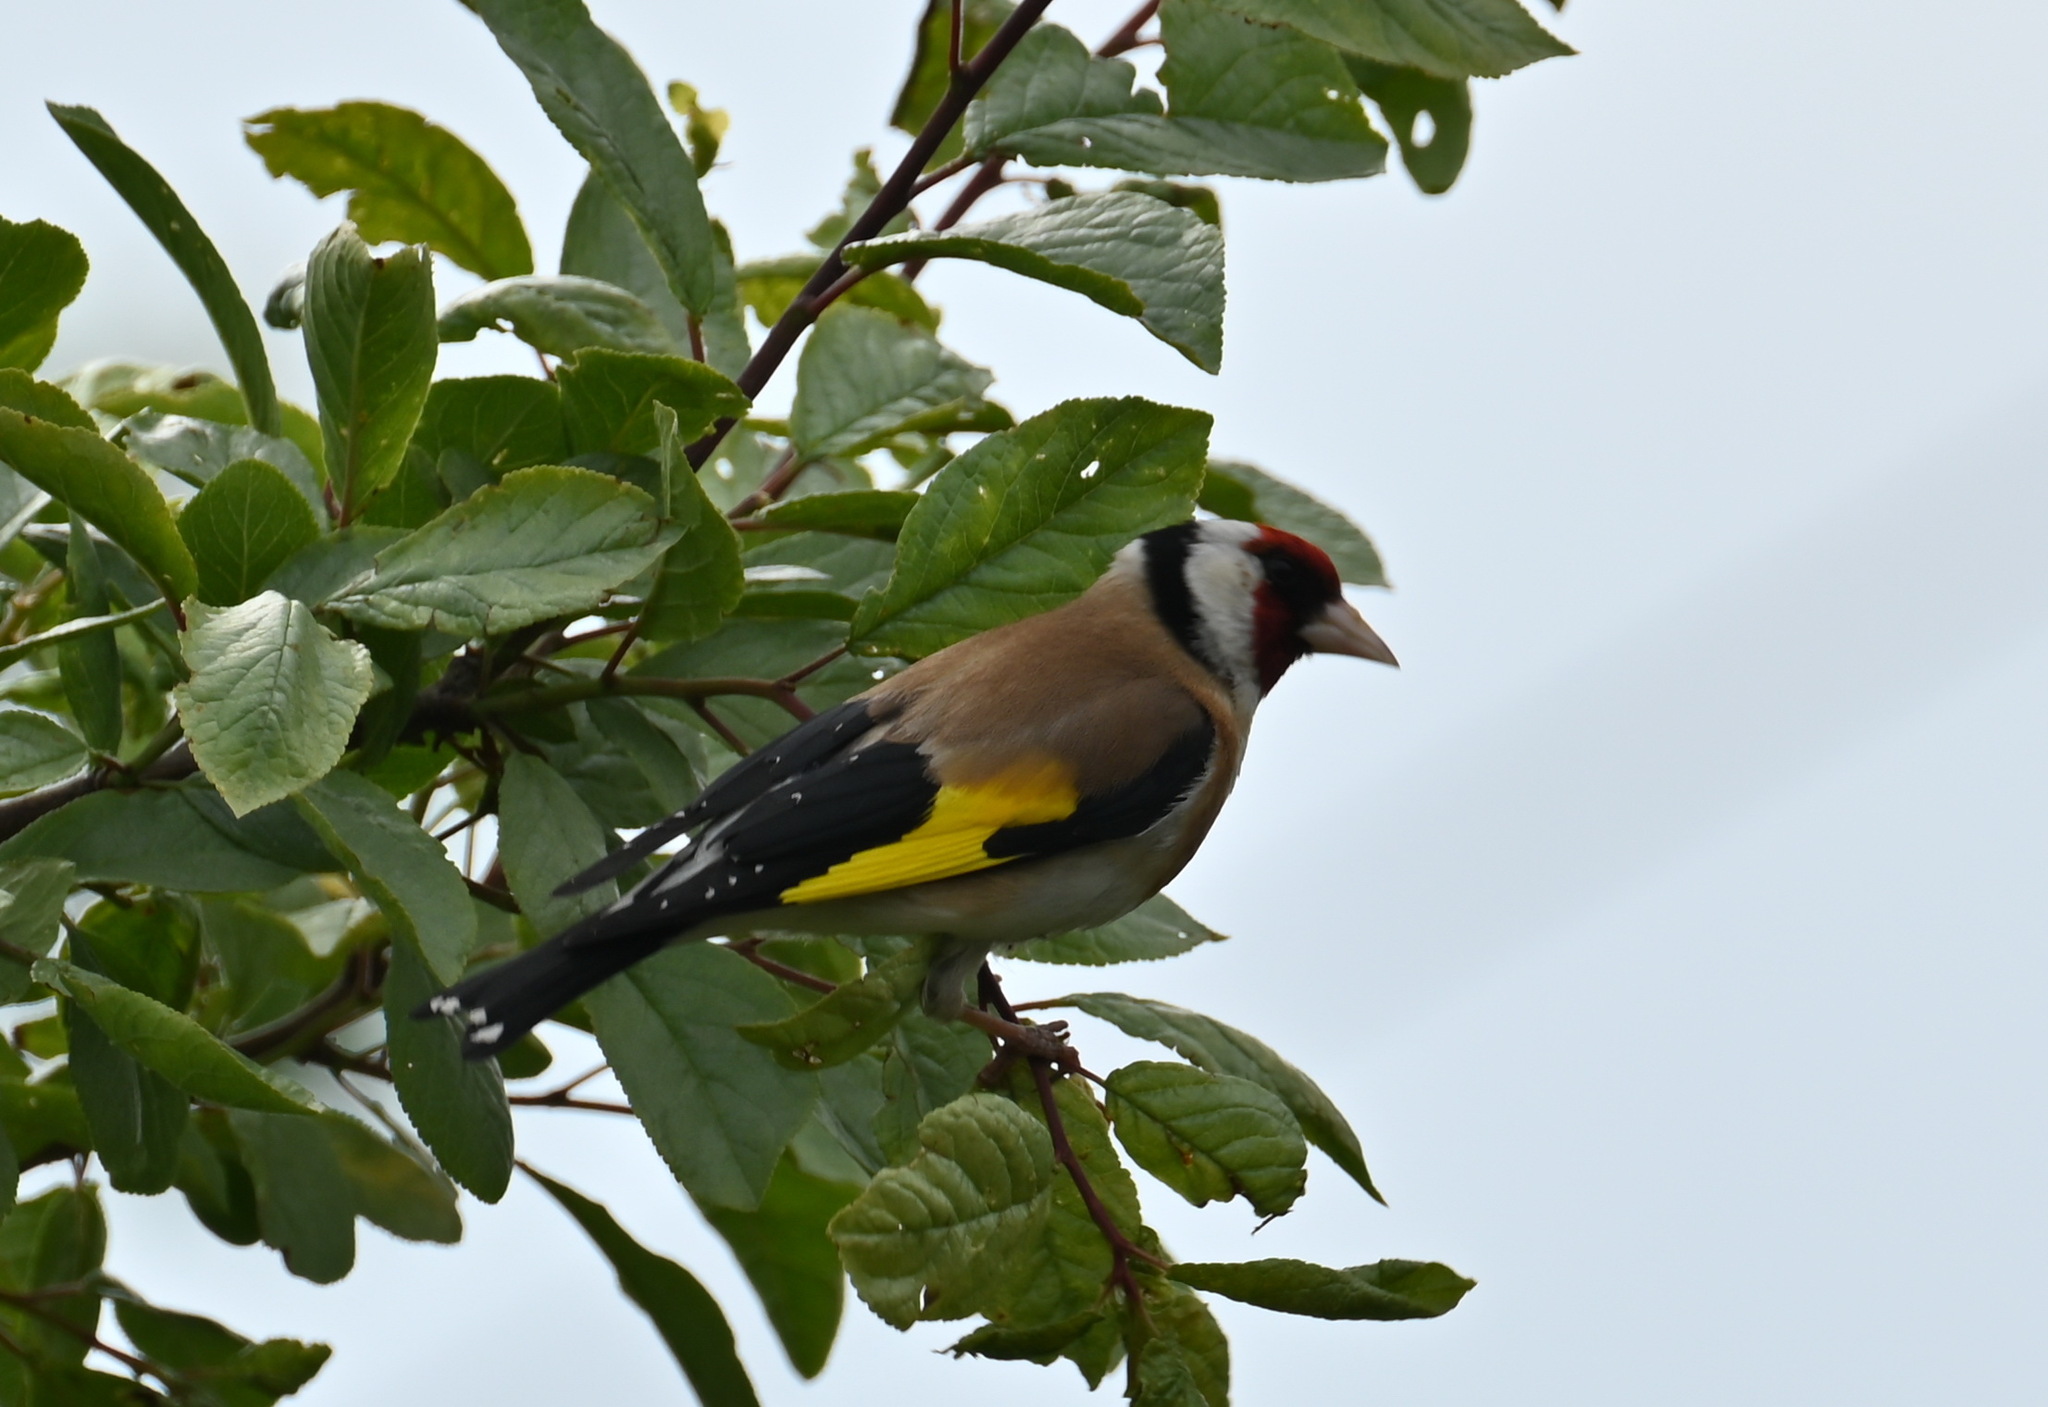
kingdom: Animalia
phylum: Chordata
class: Aves
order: Passeriformes
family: Fringillidae
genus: Carduelis
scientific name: Carduelis carduelis
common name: European goldfinch
